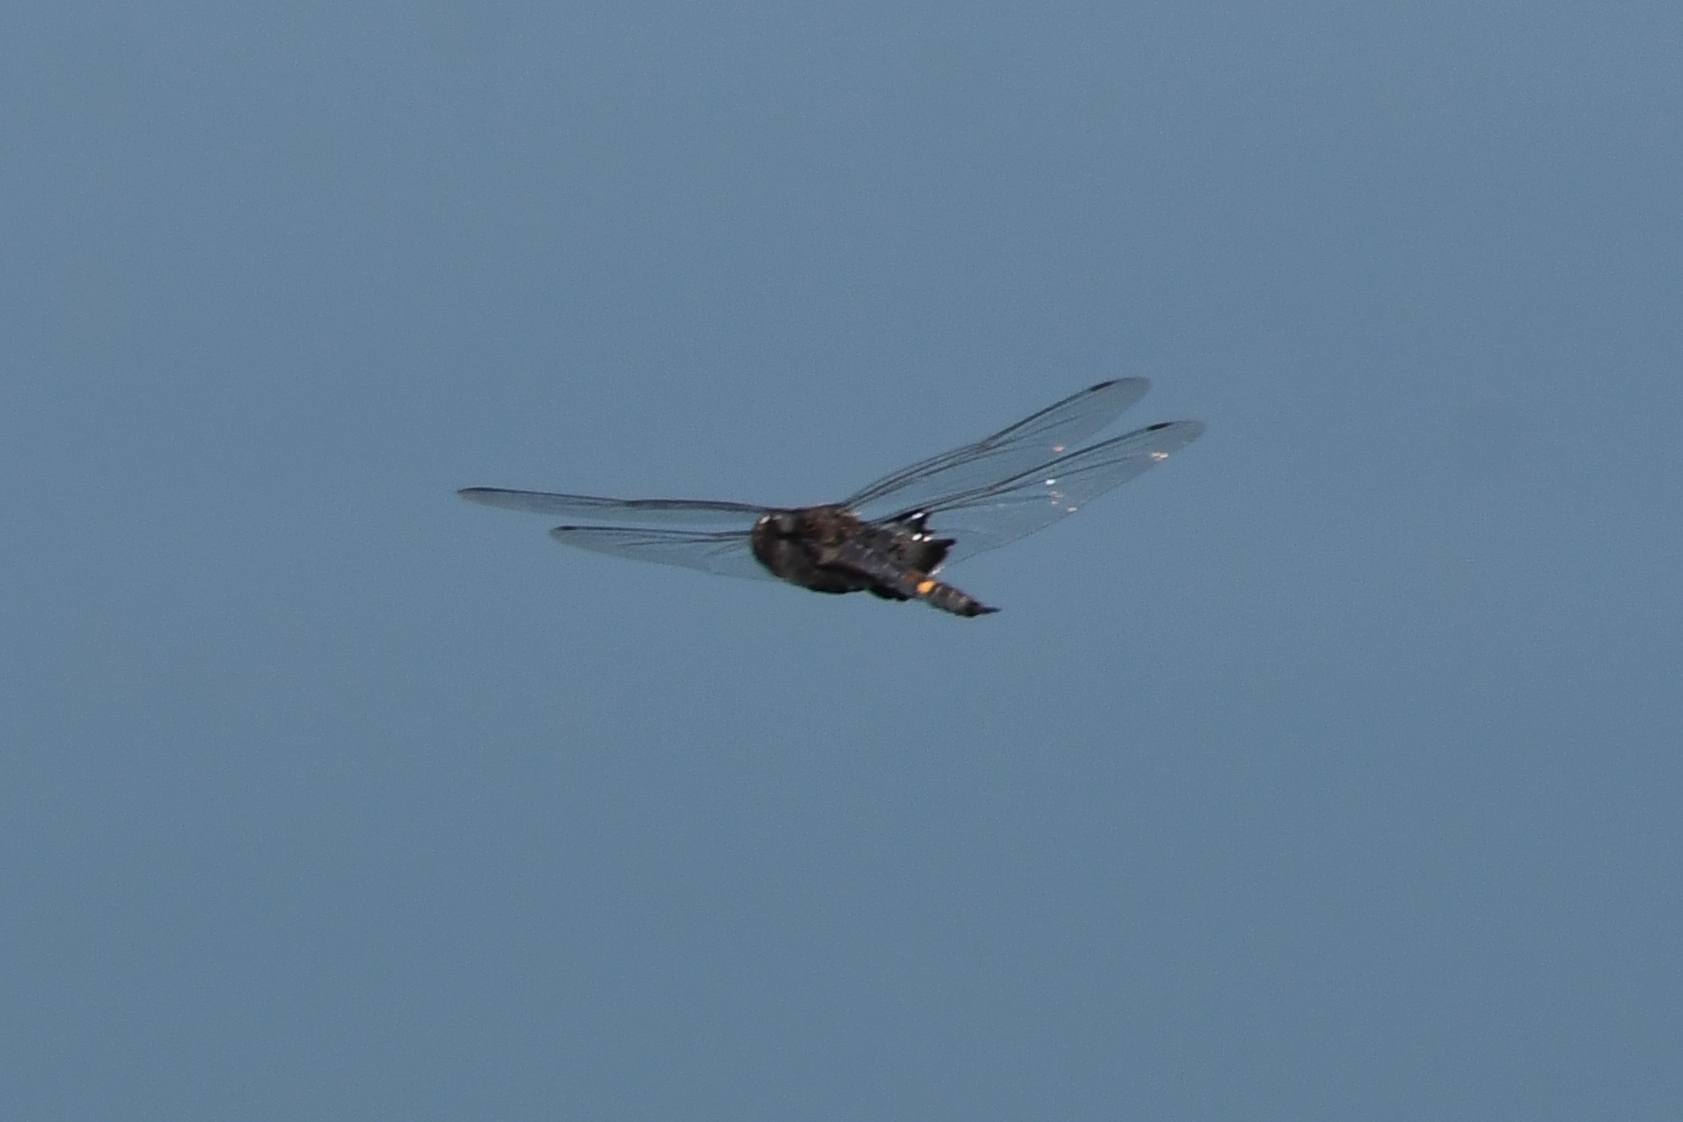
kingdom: Animalia
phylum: Arthropoda
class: Insecta
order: Odonata
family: Libellulidae
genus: Tramea
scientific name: Tramea lacerata
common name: Black saddlebags
